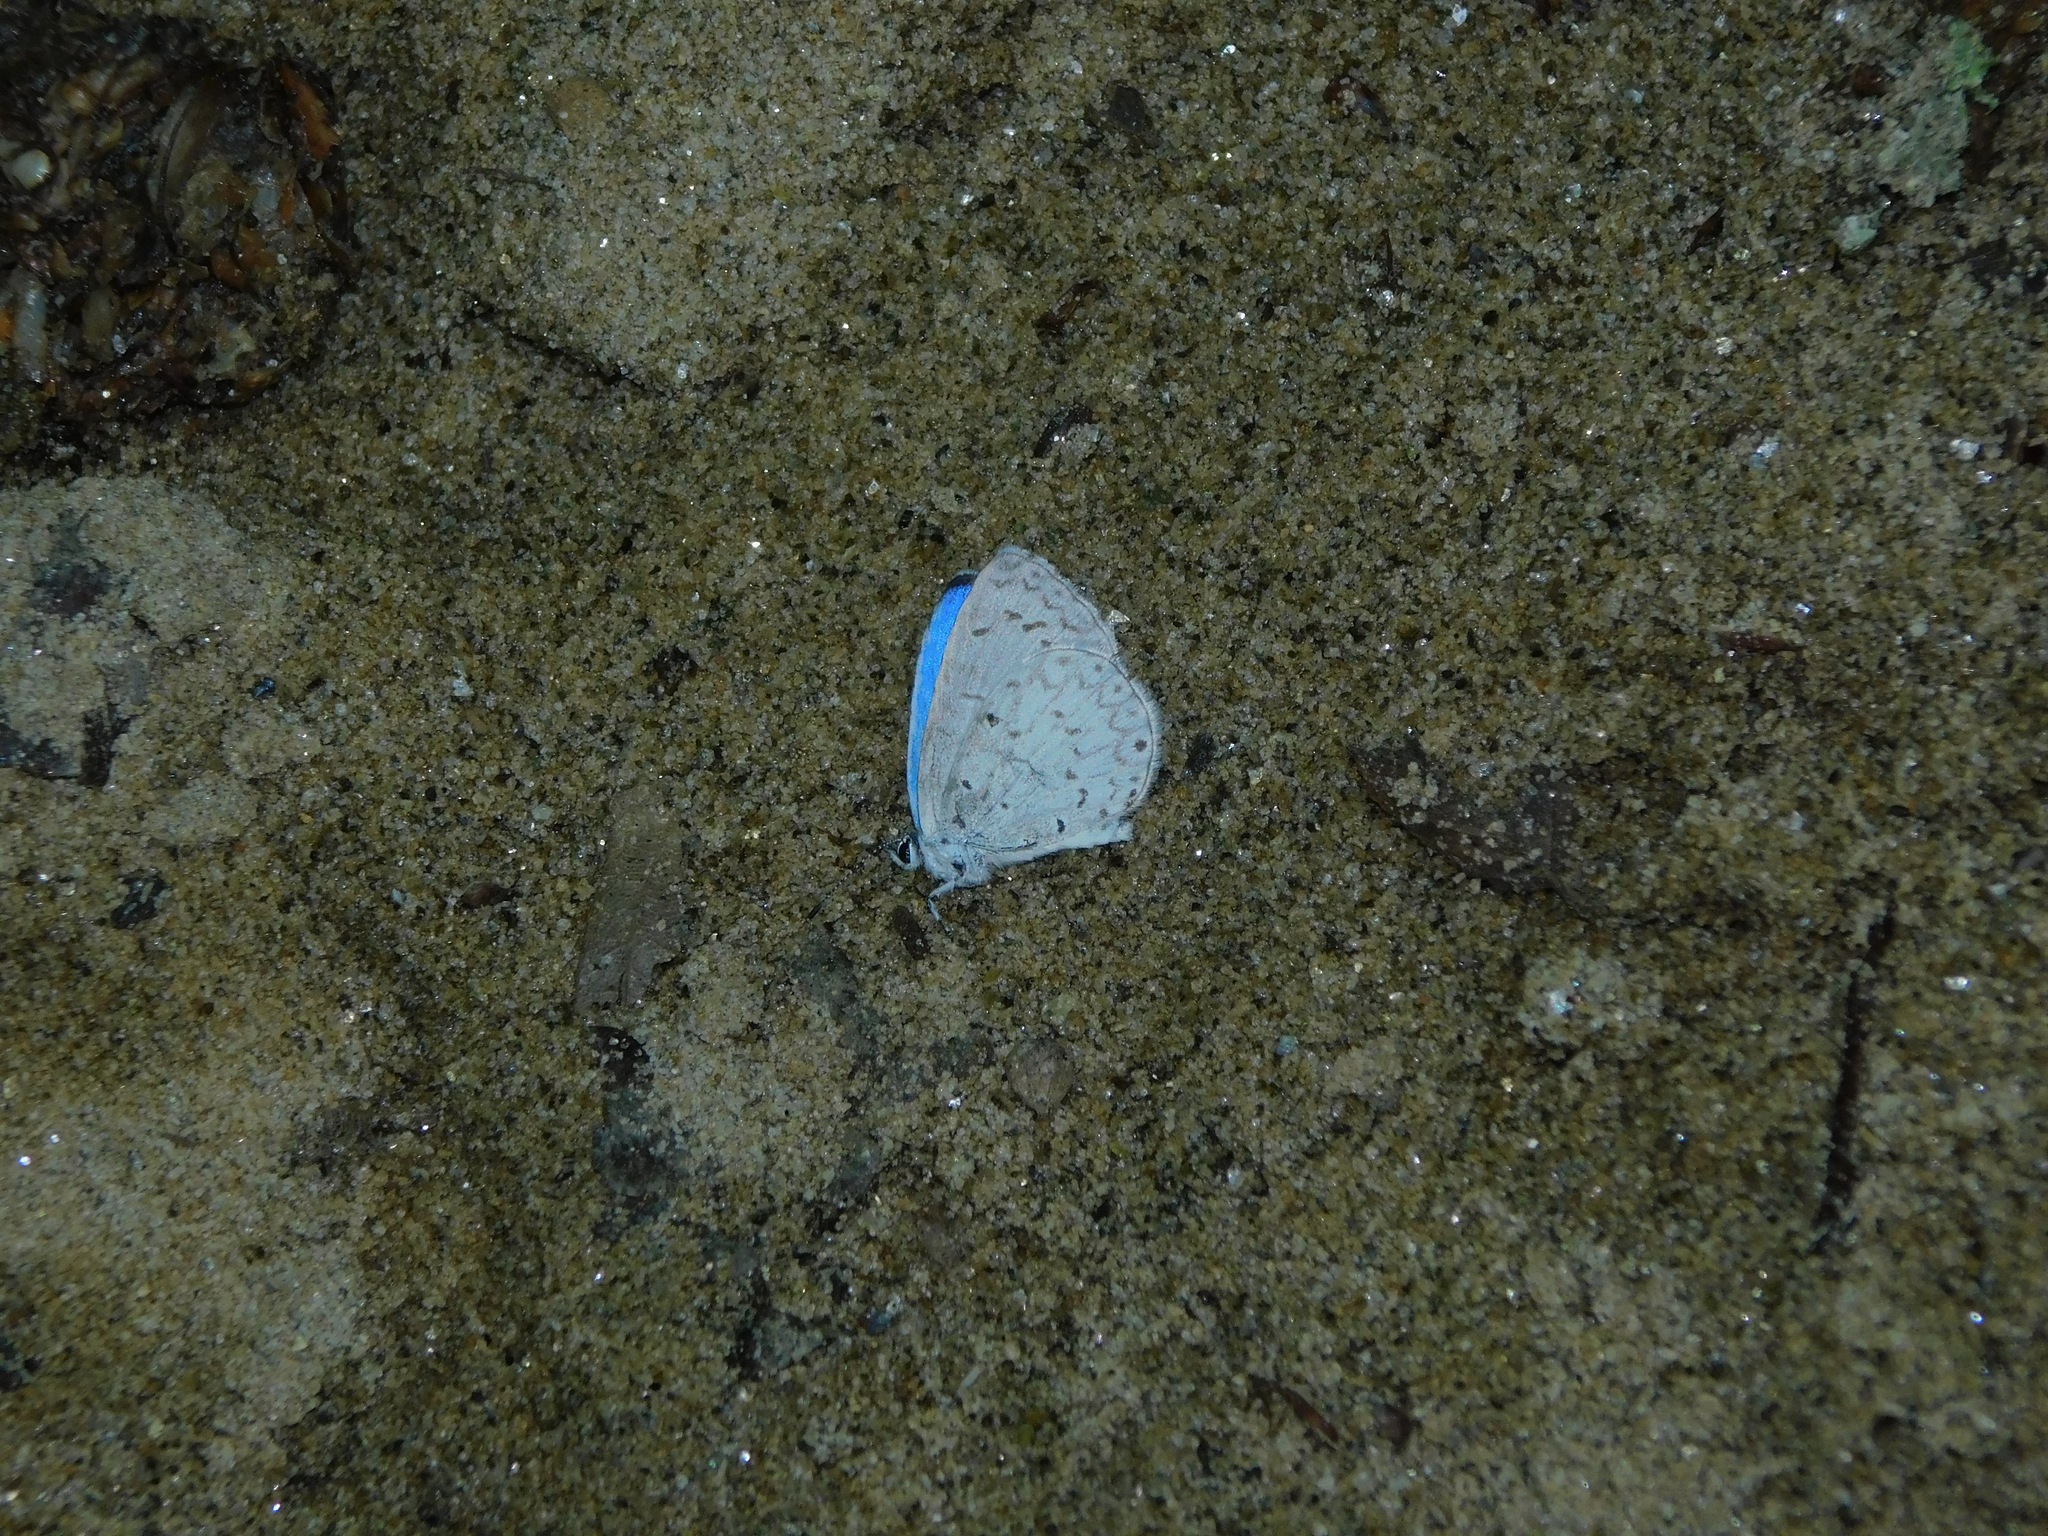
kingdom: Animalia
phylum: Arthropoda
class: Insecta
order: Lepidoptera
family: Lycaenidae
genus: Cyaniris
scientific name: Cyaniris neglecta
